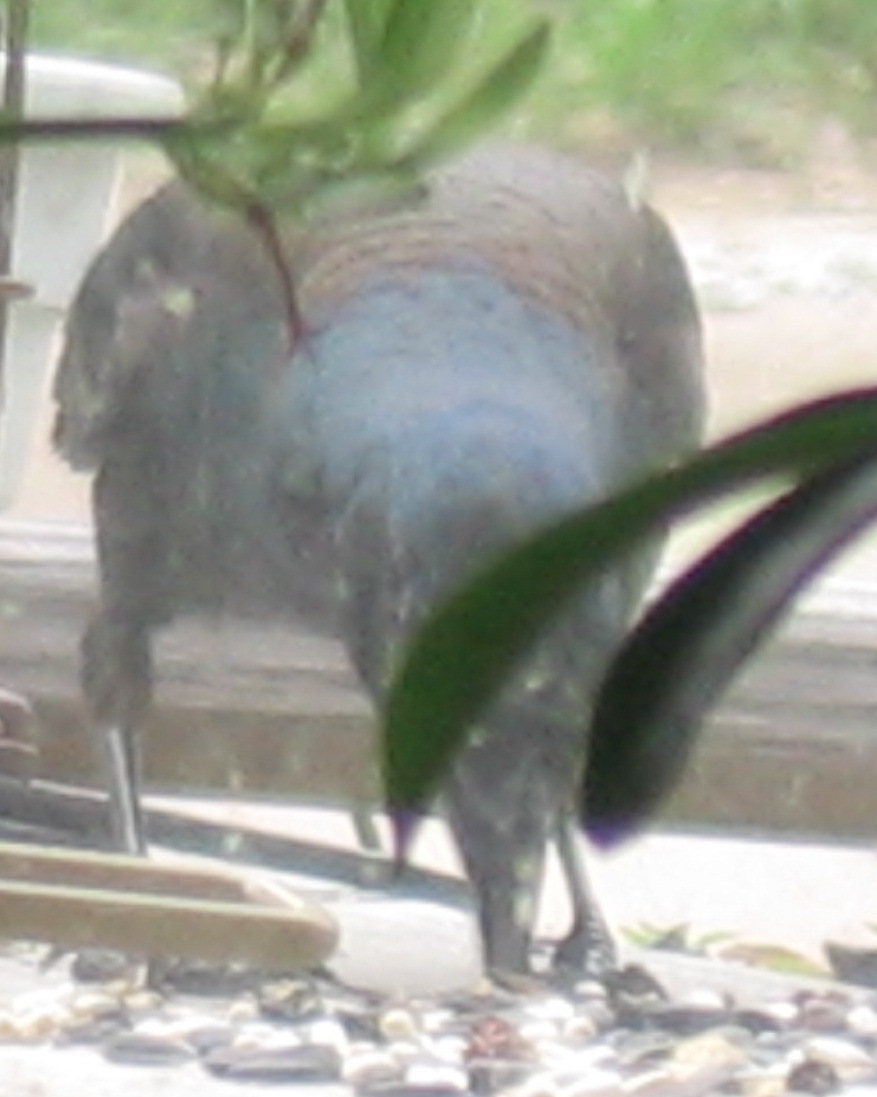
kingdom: Animalia
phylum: Chordata
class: Aves
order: Passeriformes
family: Icteridae
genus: Quiscalus
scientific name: Quiscalus quiscula
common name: Common grackle
